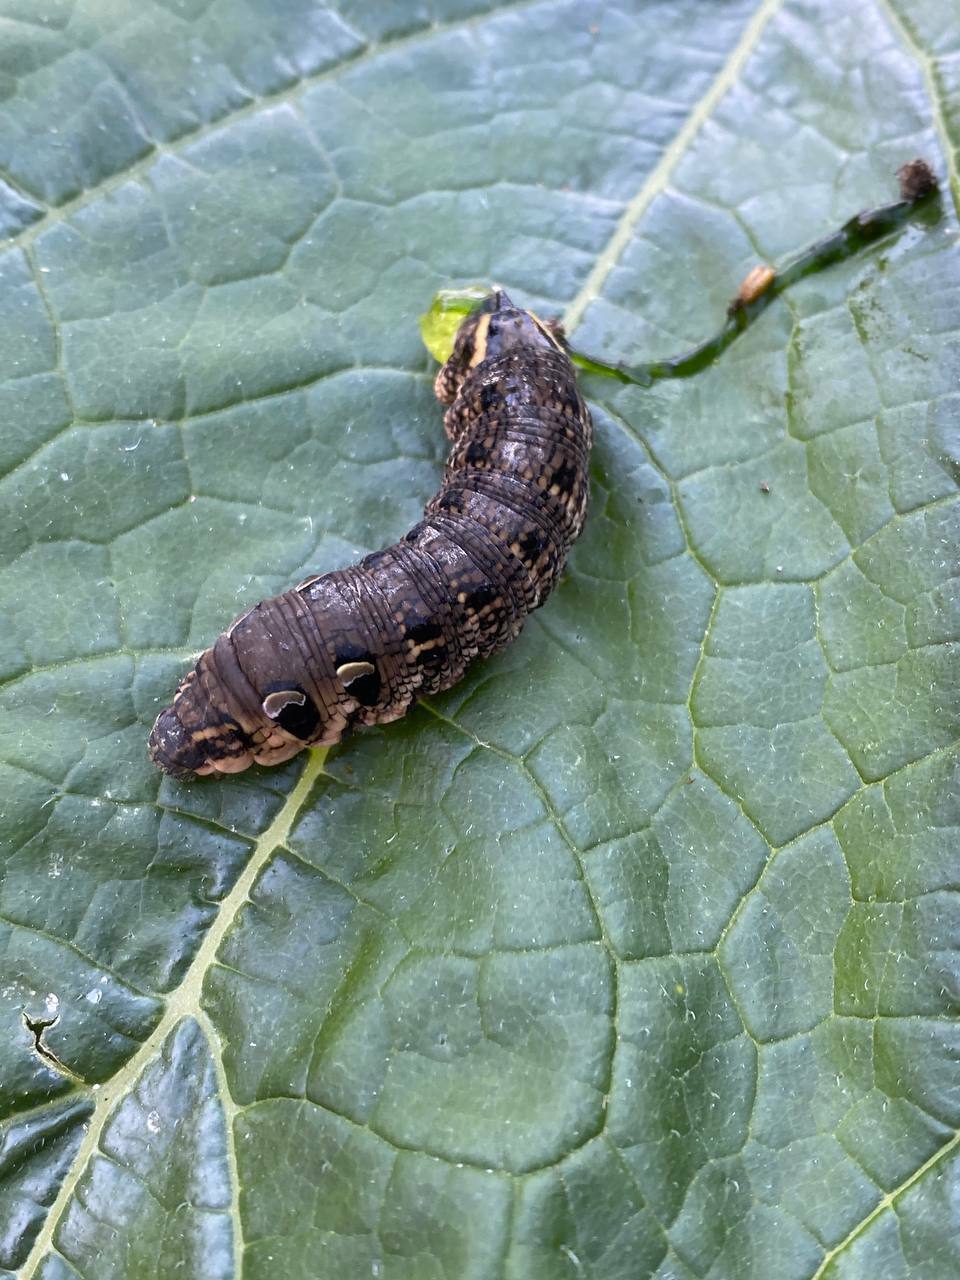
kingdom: Animalia
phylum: Arthropoda
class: Insecta
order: Lepidoptera
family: Sphingidae
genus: Deilephila
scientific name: Deilephila elpenor
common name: Elephant hawk-moth
